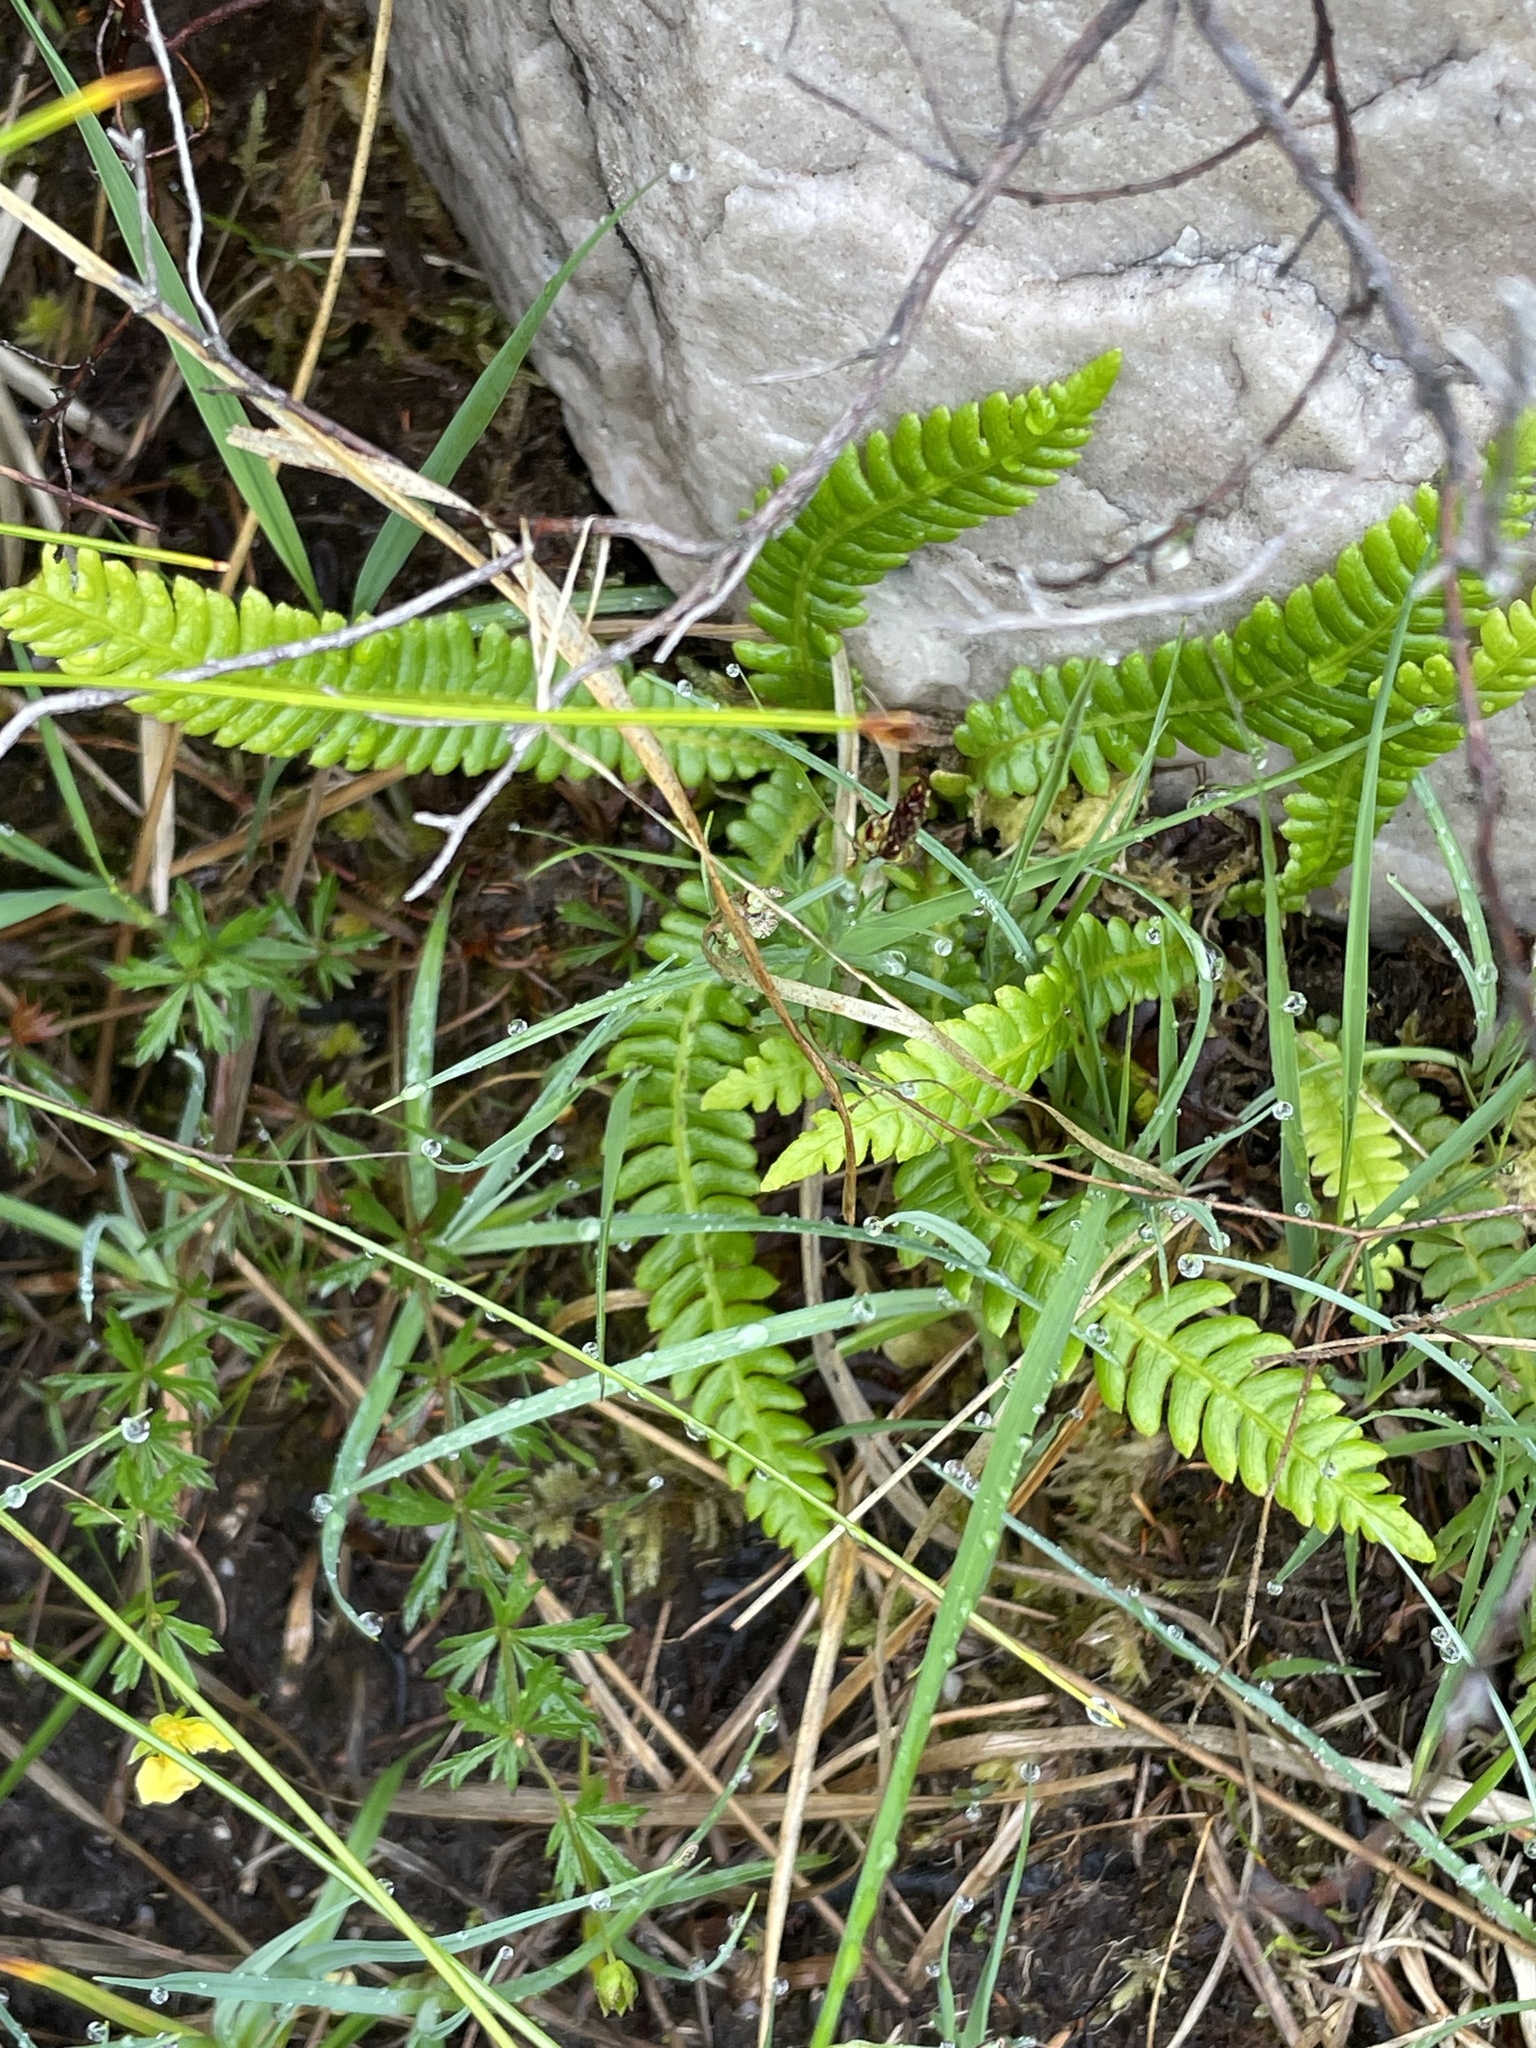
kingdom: Plantae
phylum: Tracheophyta
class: Polypodiopsida
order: Polypodiales
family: Blechnaceae
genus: Struthiopteris
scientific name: Struthiopteris spicant
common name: Deer fern
